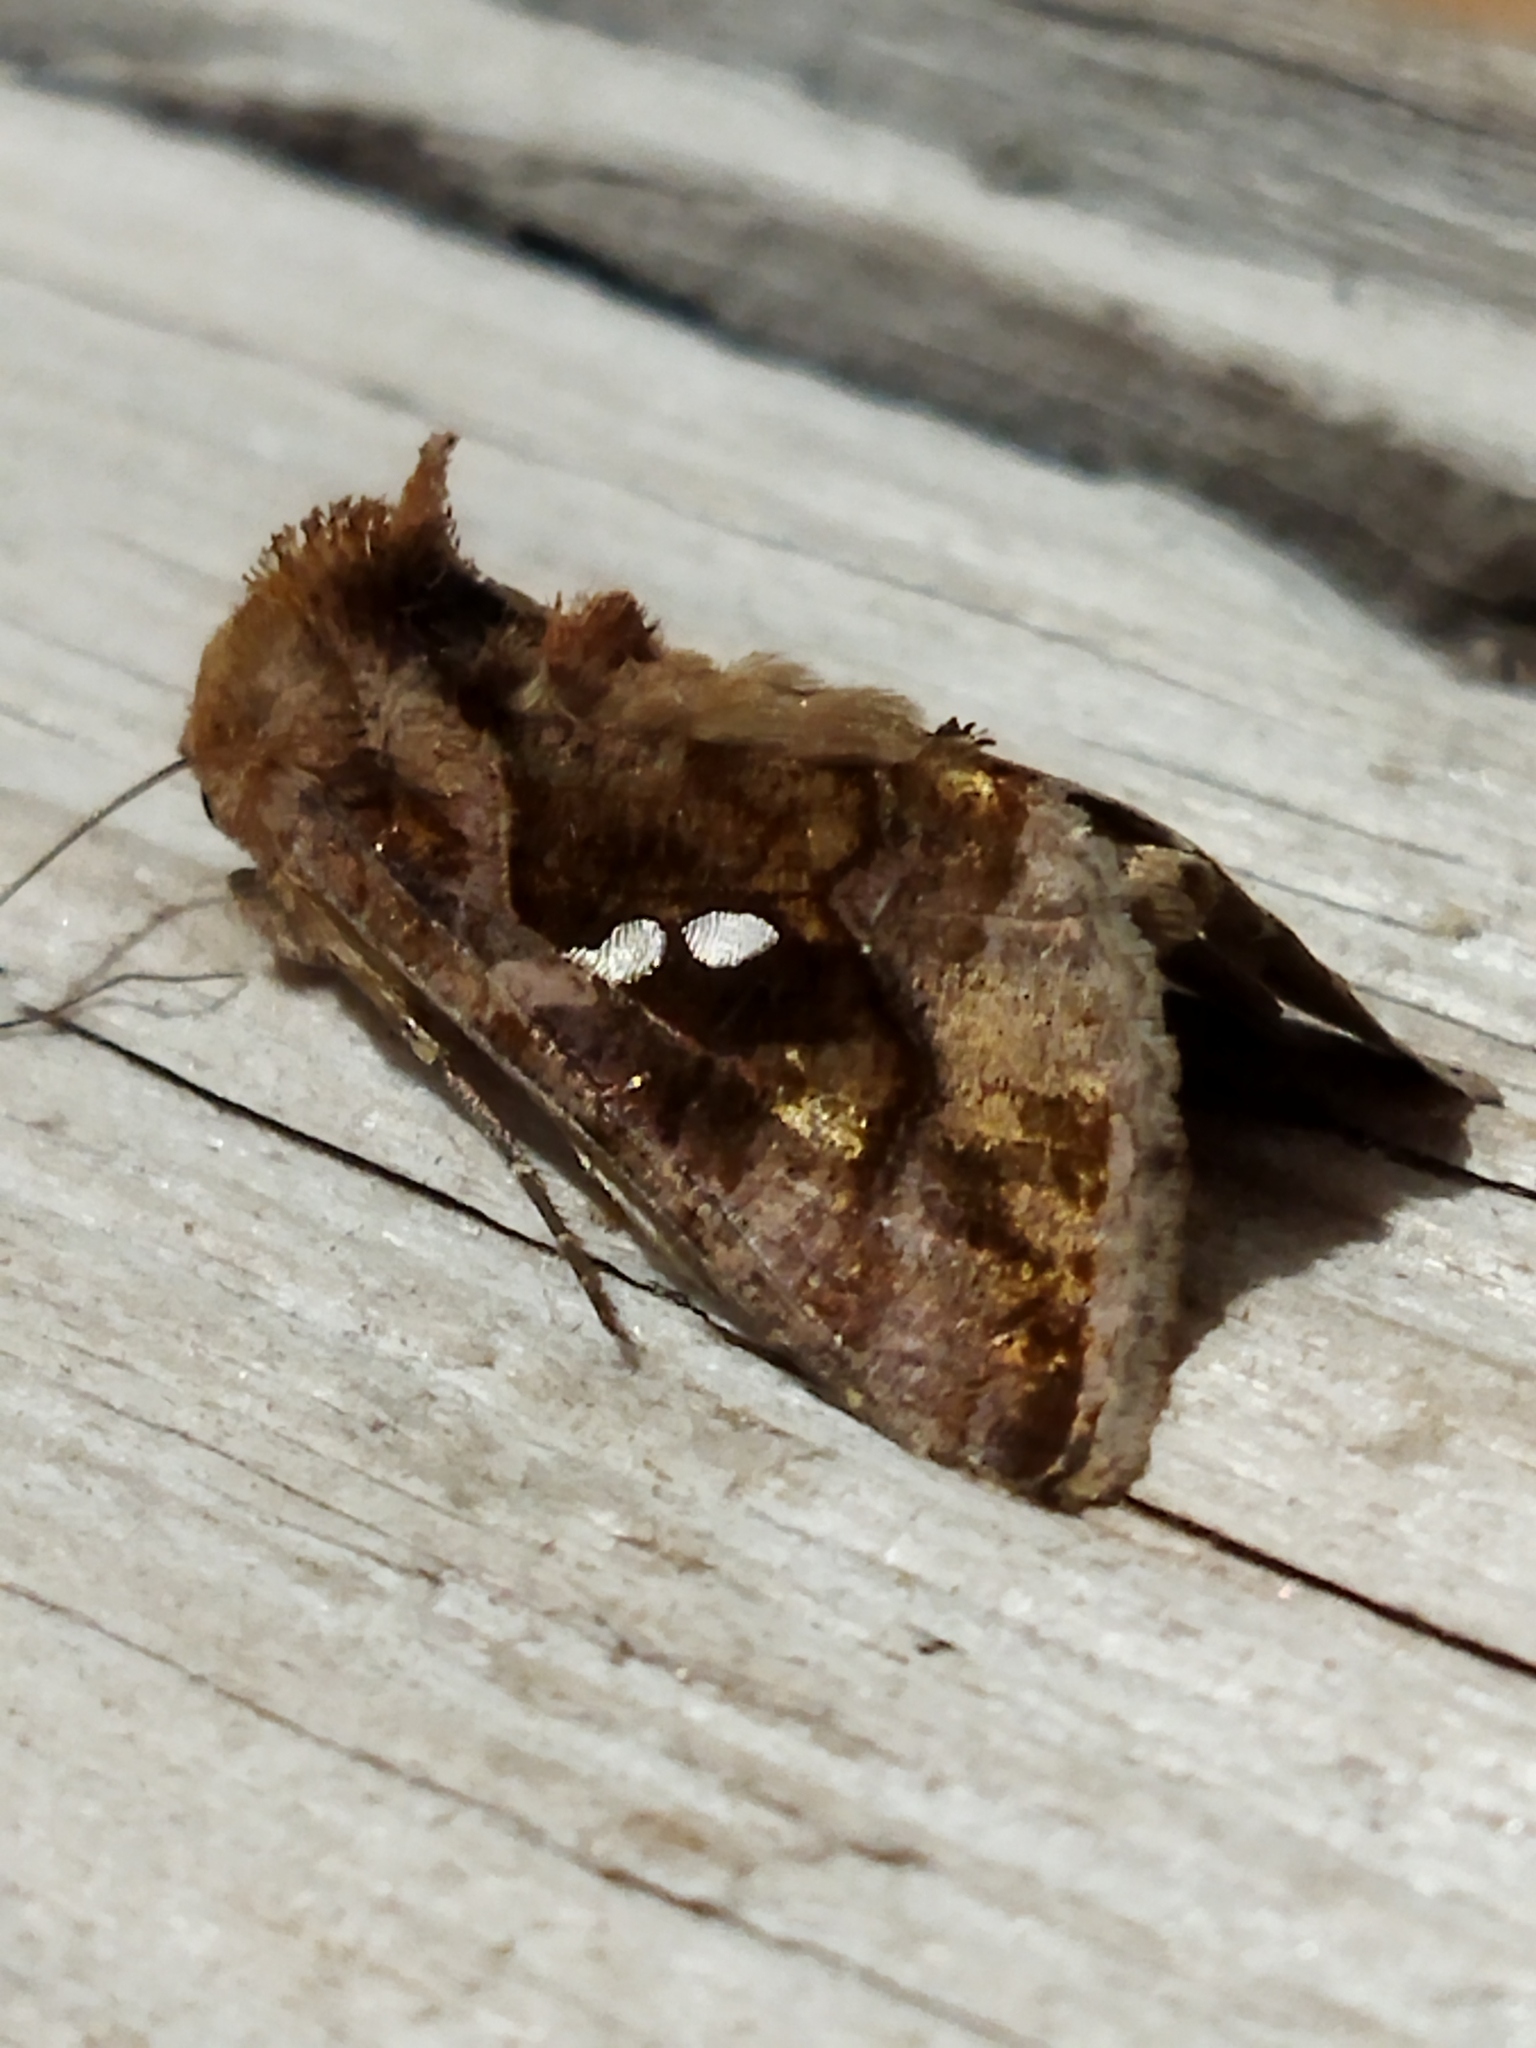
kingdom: Animalia
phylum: Arthropoda
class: Insecta
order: Lepidoptera
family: Noctuidae
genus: Chrysodeixis
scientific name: Chrysodeixis chalcites
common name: Golden twin-spot
